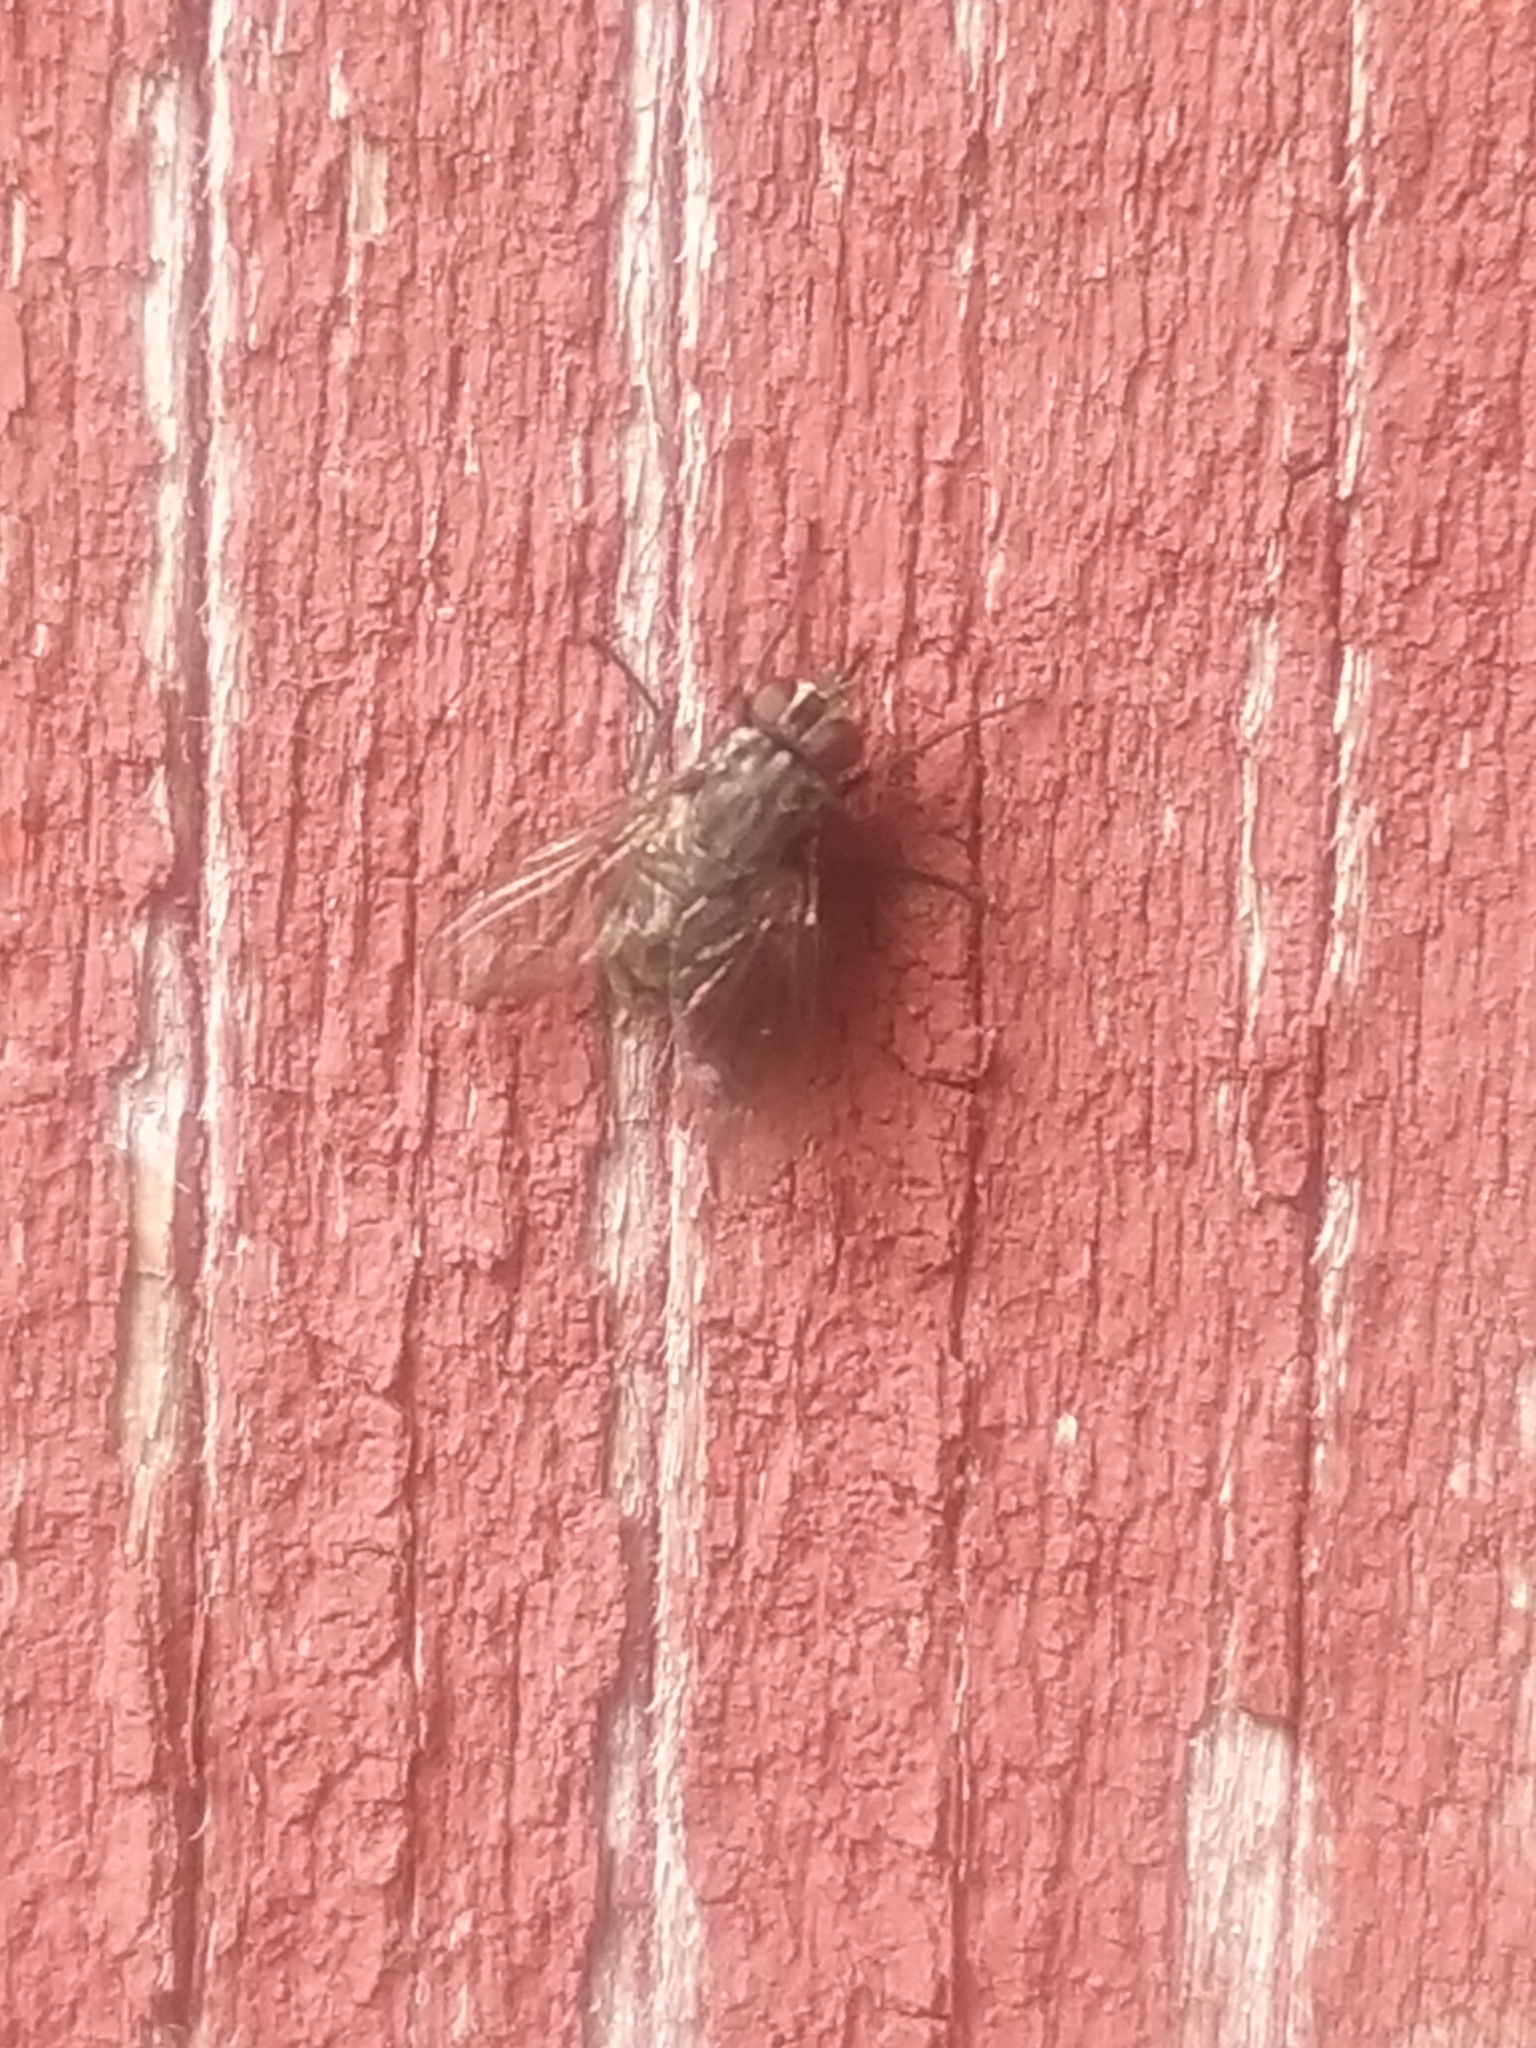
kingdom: Animalia
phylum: Arthropoda
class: Insecta
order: Diptera
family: Muscidae
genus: Stomoxys
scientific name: Stomoxys calcitrans
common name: Stable fly
